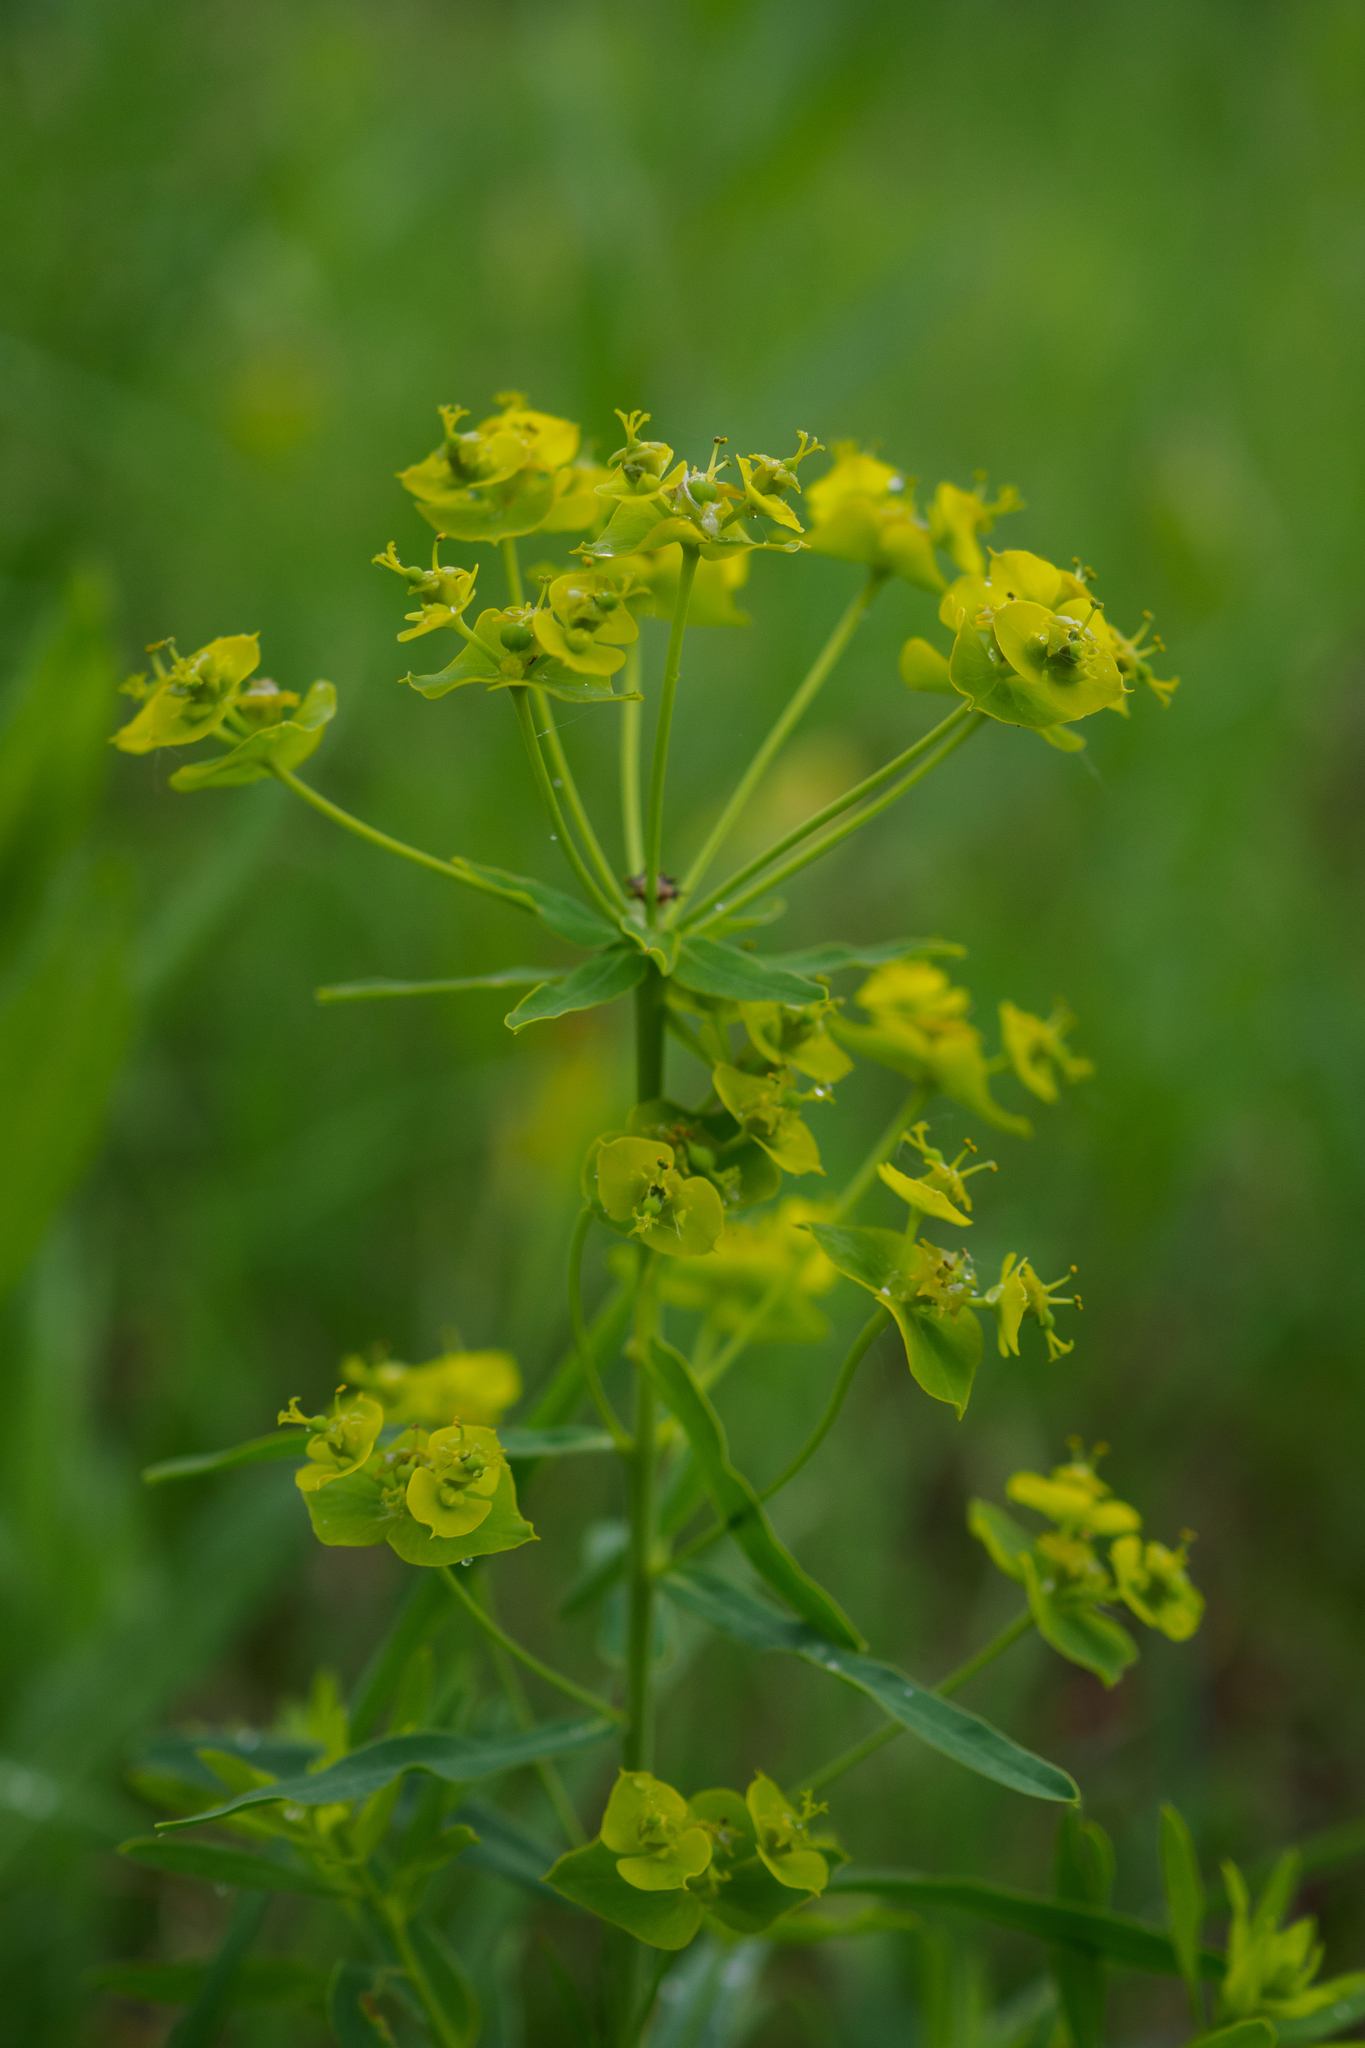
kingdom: Plantae
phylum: Tracheophyta
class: Magnoliopsida
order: Malpighiales
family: Euphorbiaceae
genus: Euphorbia
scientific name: Euphorbia virgata
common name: Leafy spurge
